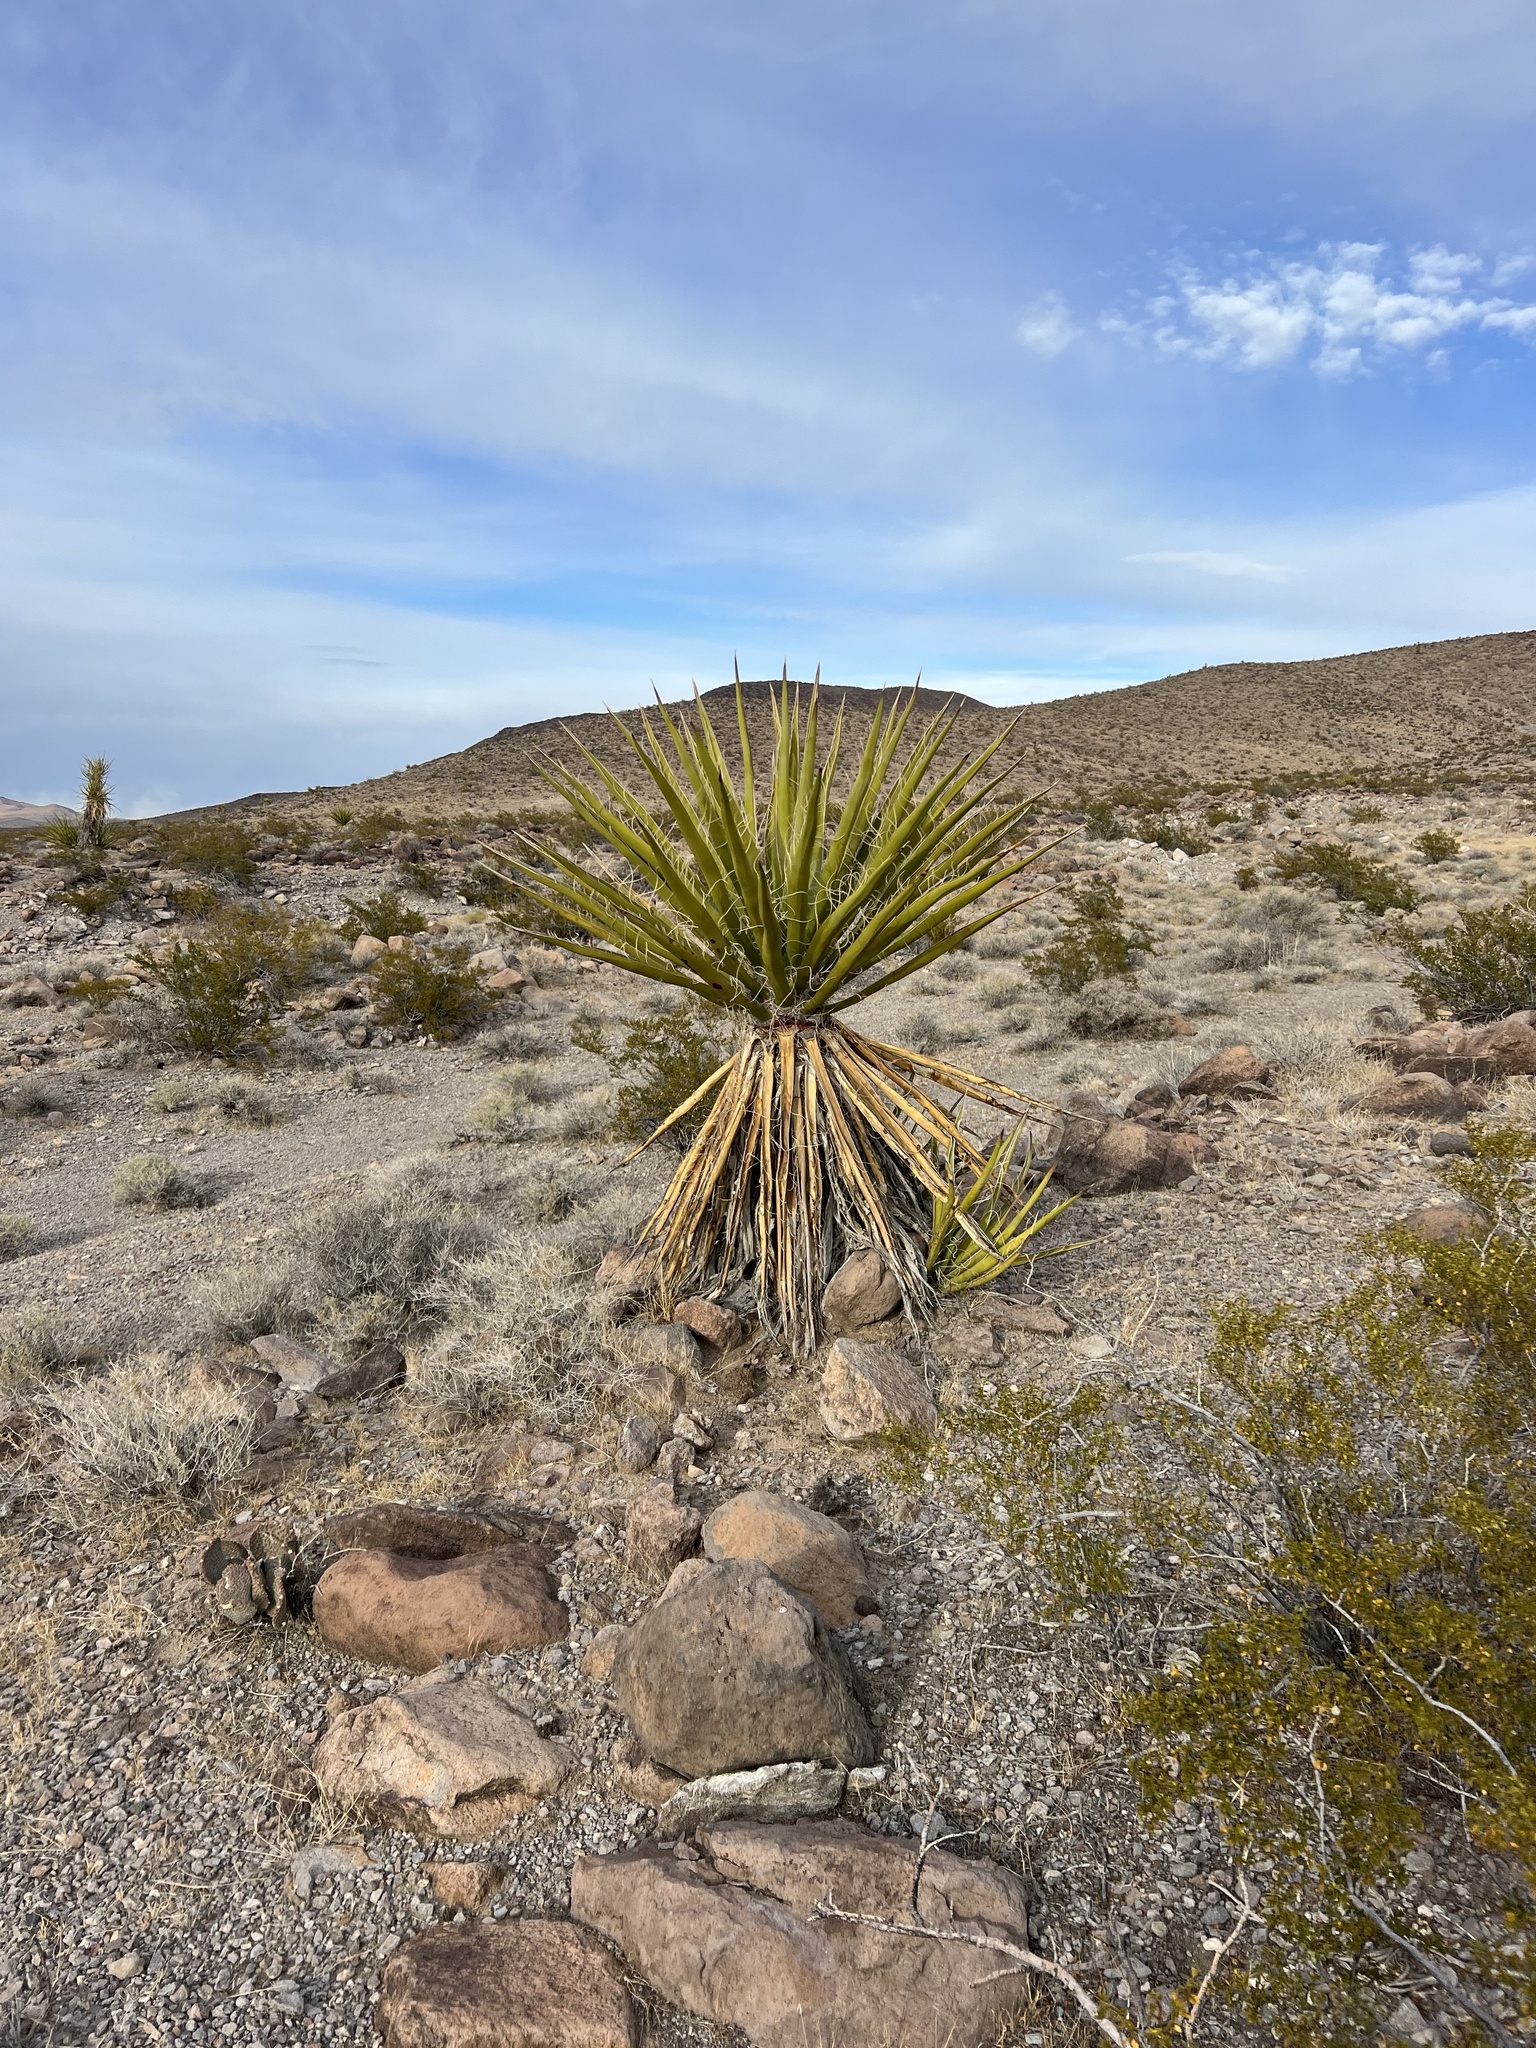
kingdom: Plantae
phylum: Tracheophyta
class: Liliopsida
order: Asparagales
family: Asparagaceae
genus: Yucca
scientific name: Yucca schidigera
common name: Mojave yucca
